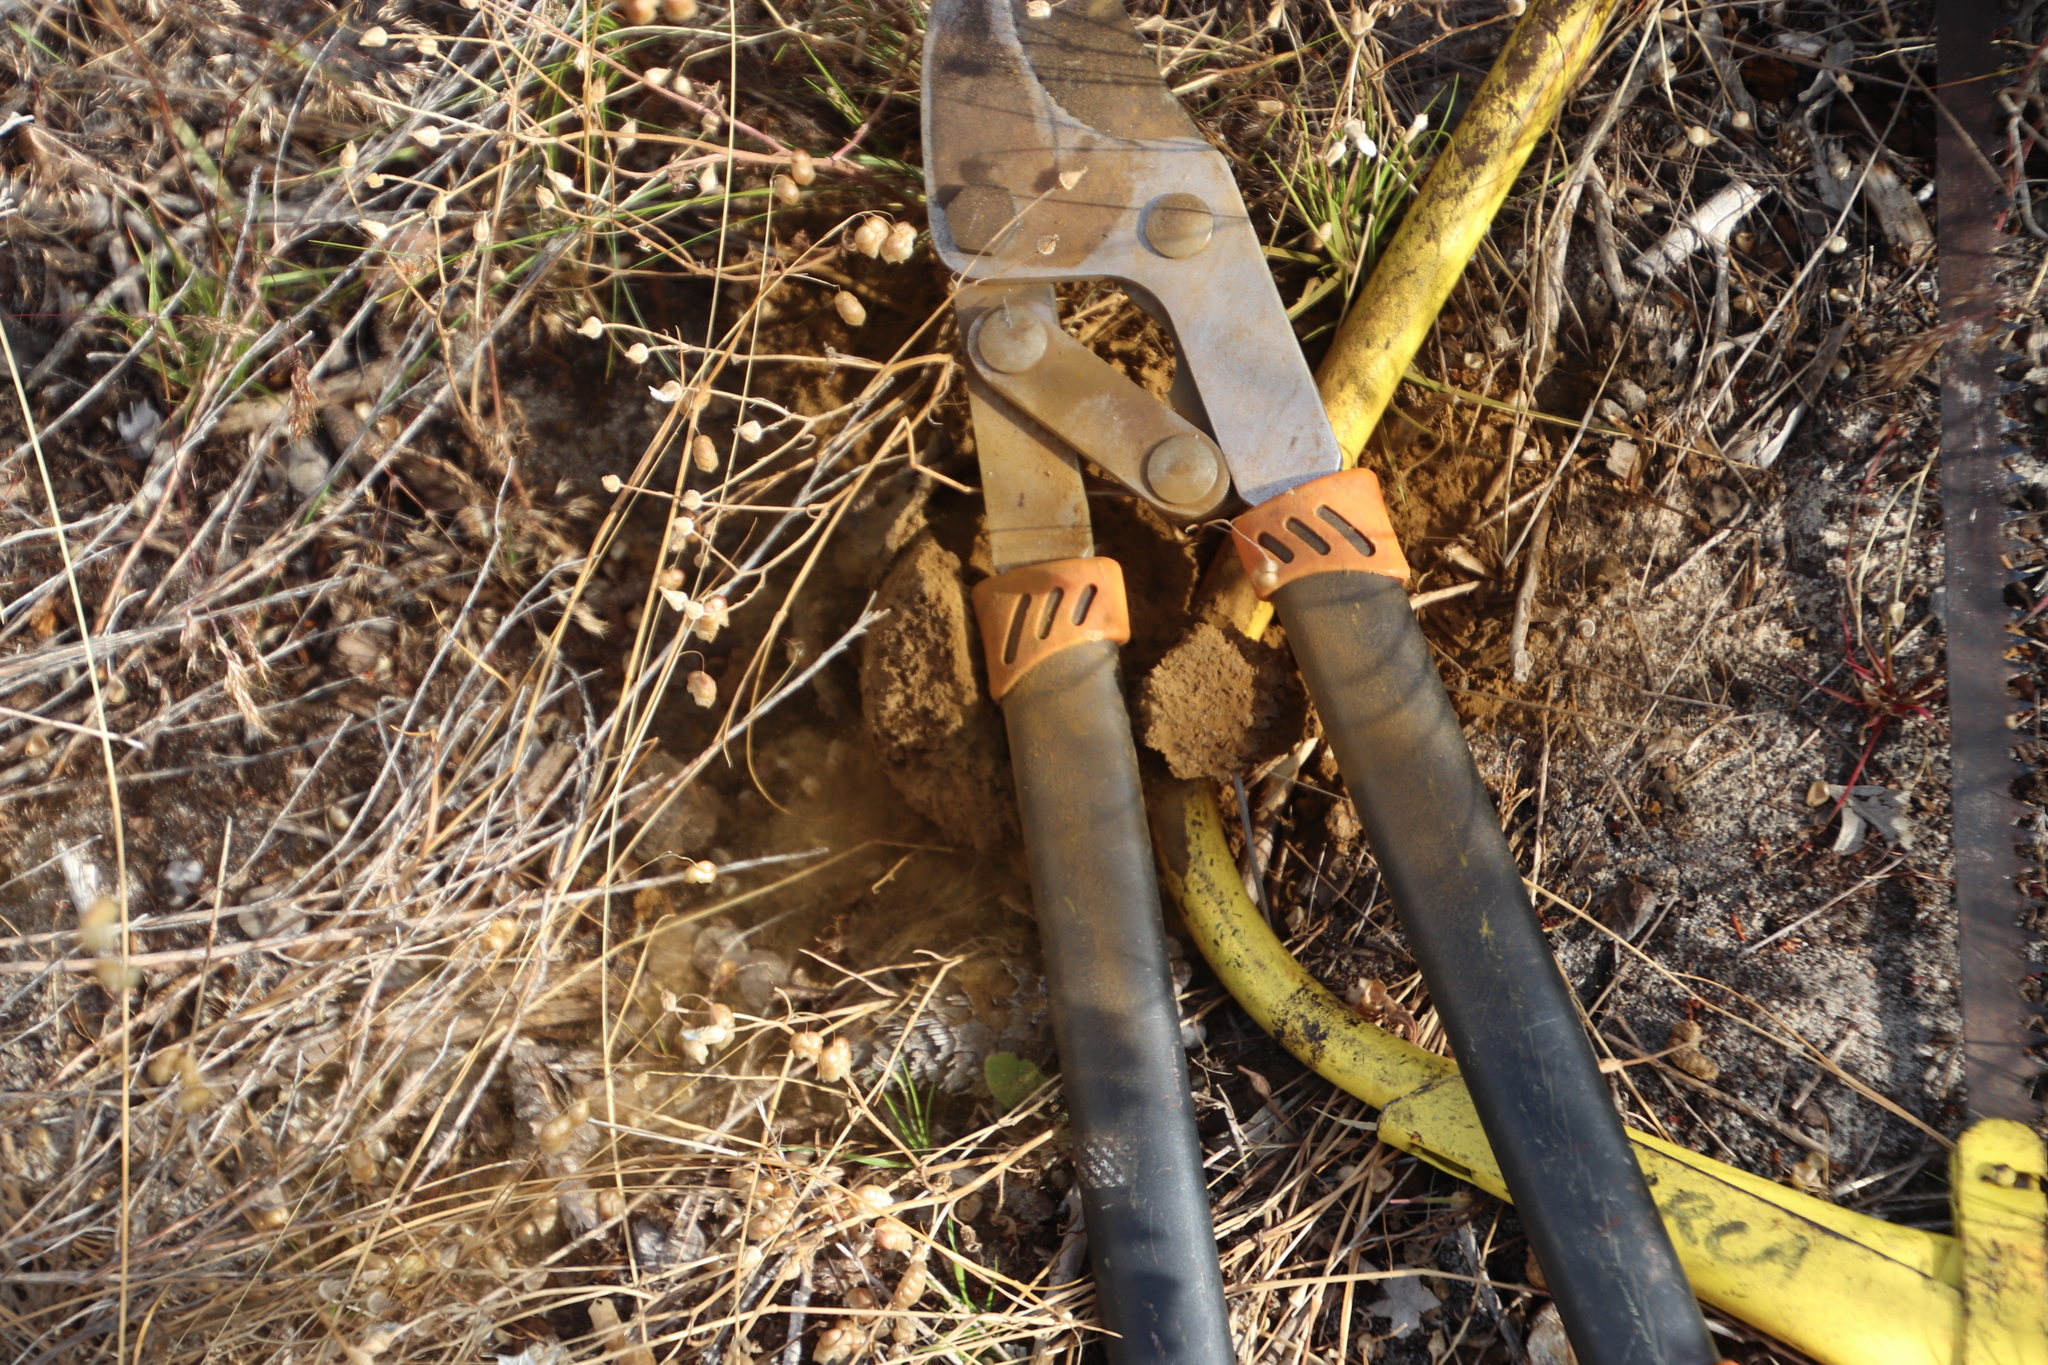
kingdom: Fungi
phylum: Basidiomycota
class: Agaricomycetes
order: Boletales
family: Sclerodermataceae
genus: Pisolithus
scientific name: Pisolithus arhizus
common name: Dyeball
